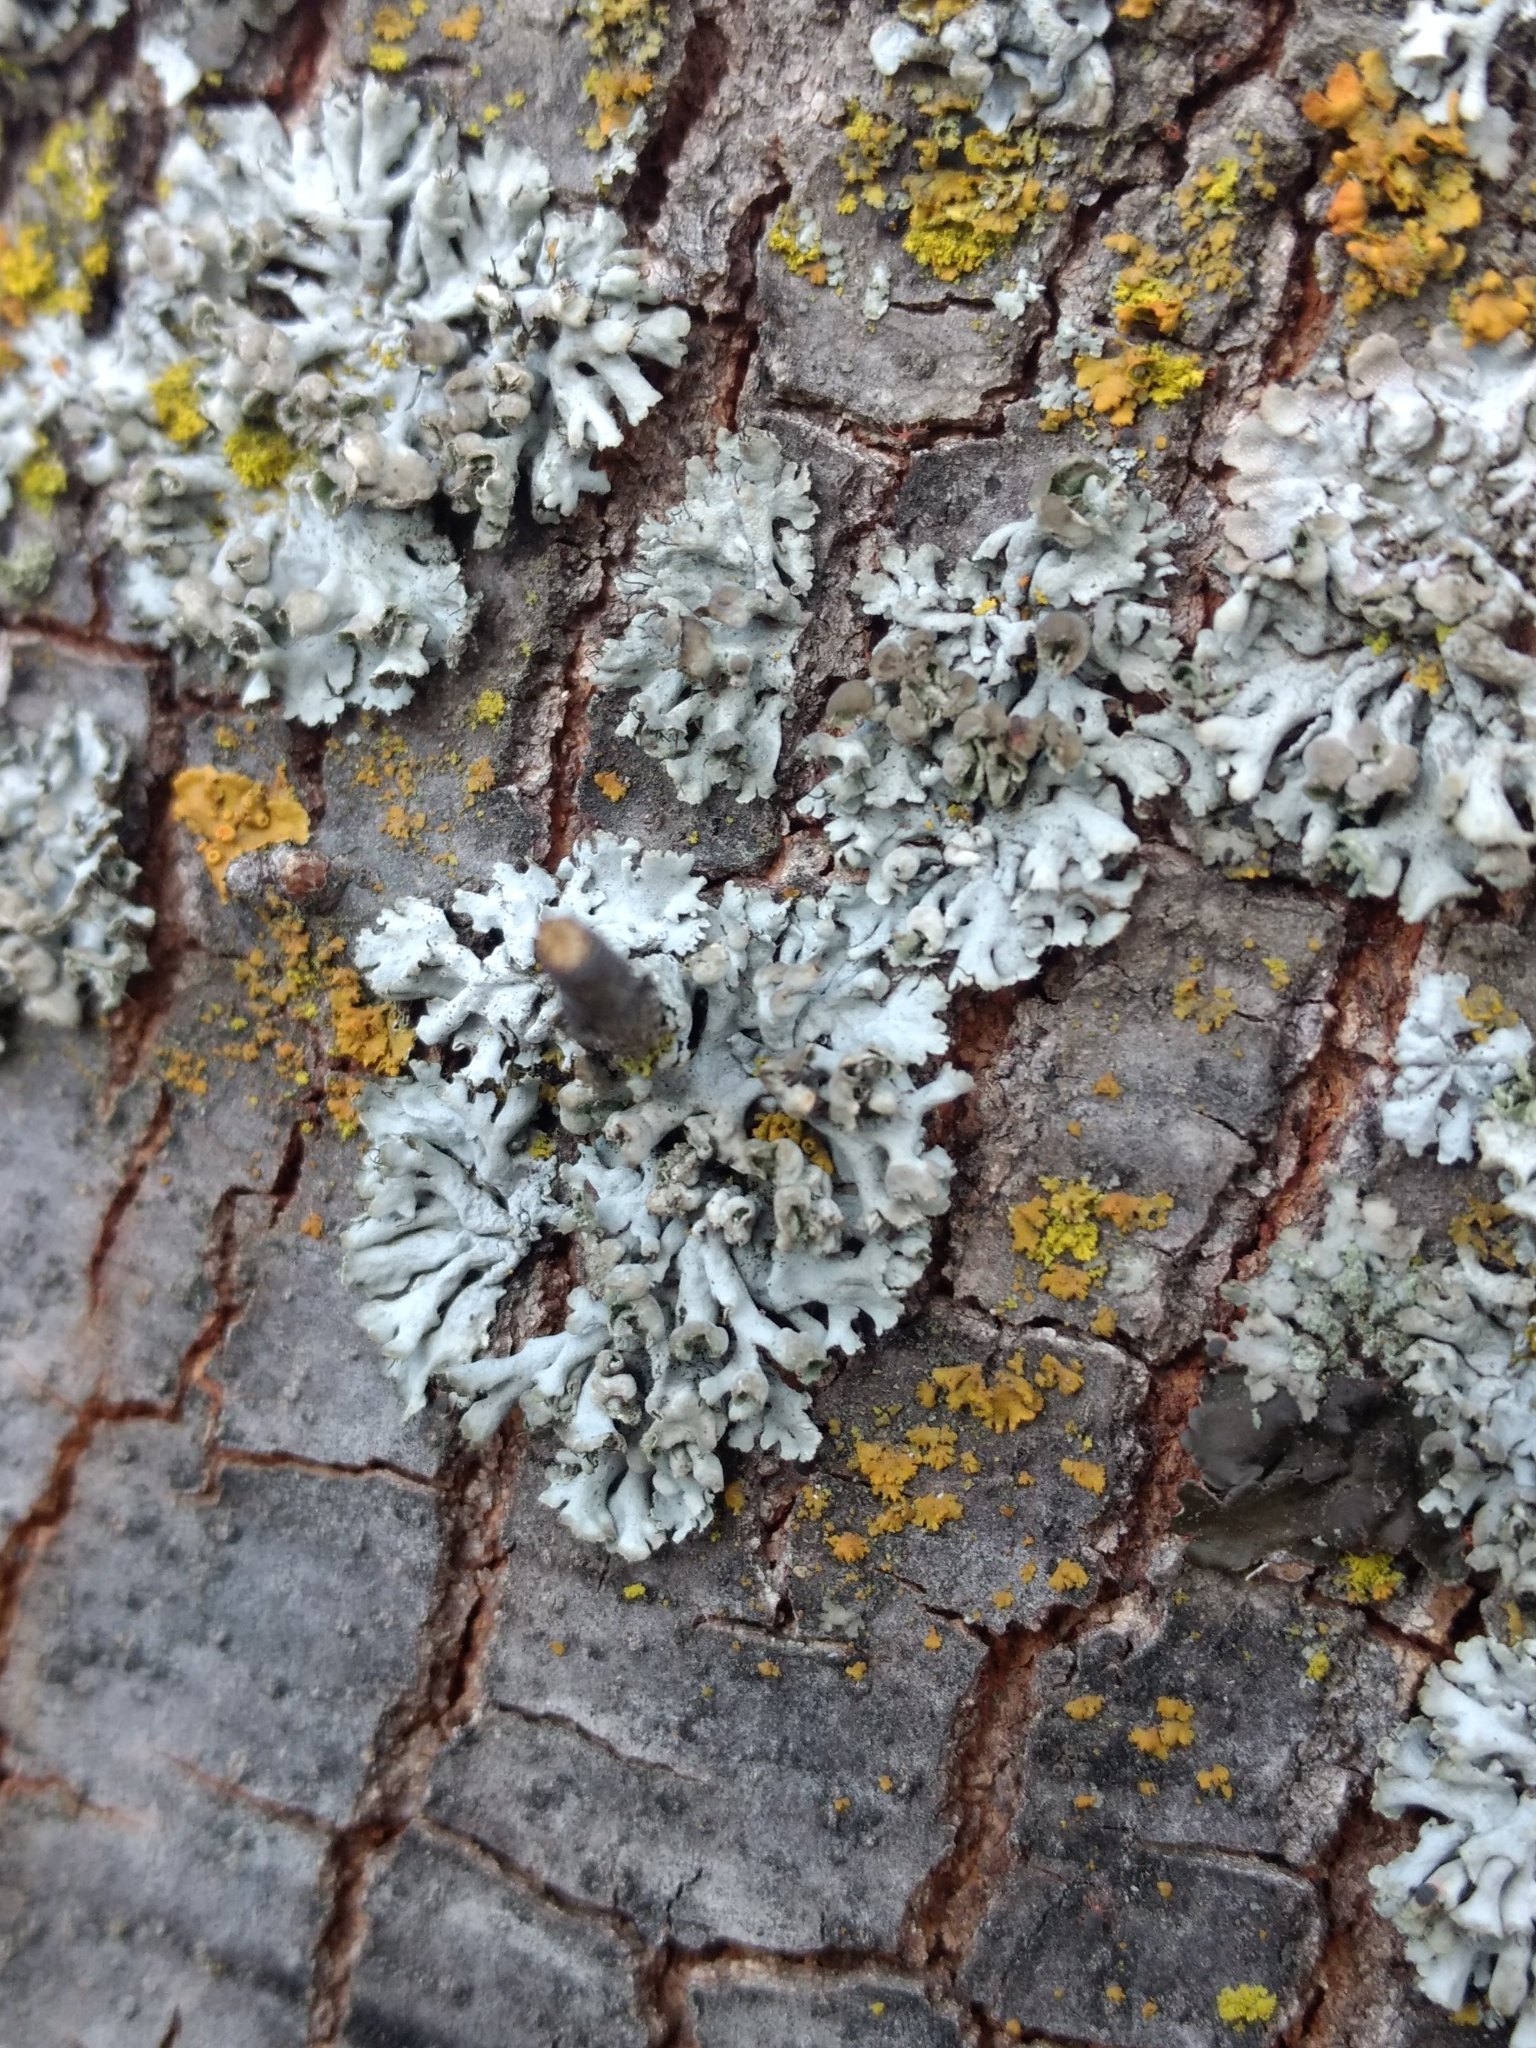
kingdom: Fungi
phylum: Ascomycota
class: Lecanoromycetes
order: Caliciales
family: Physciaceae
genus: Physcia
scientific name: Physcia adscendens
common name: Hooded rosette lichen
